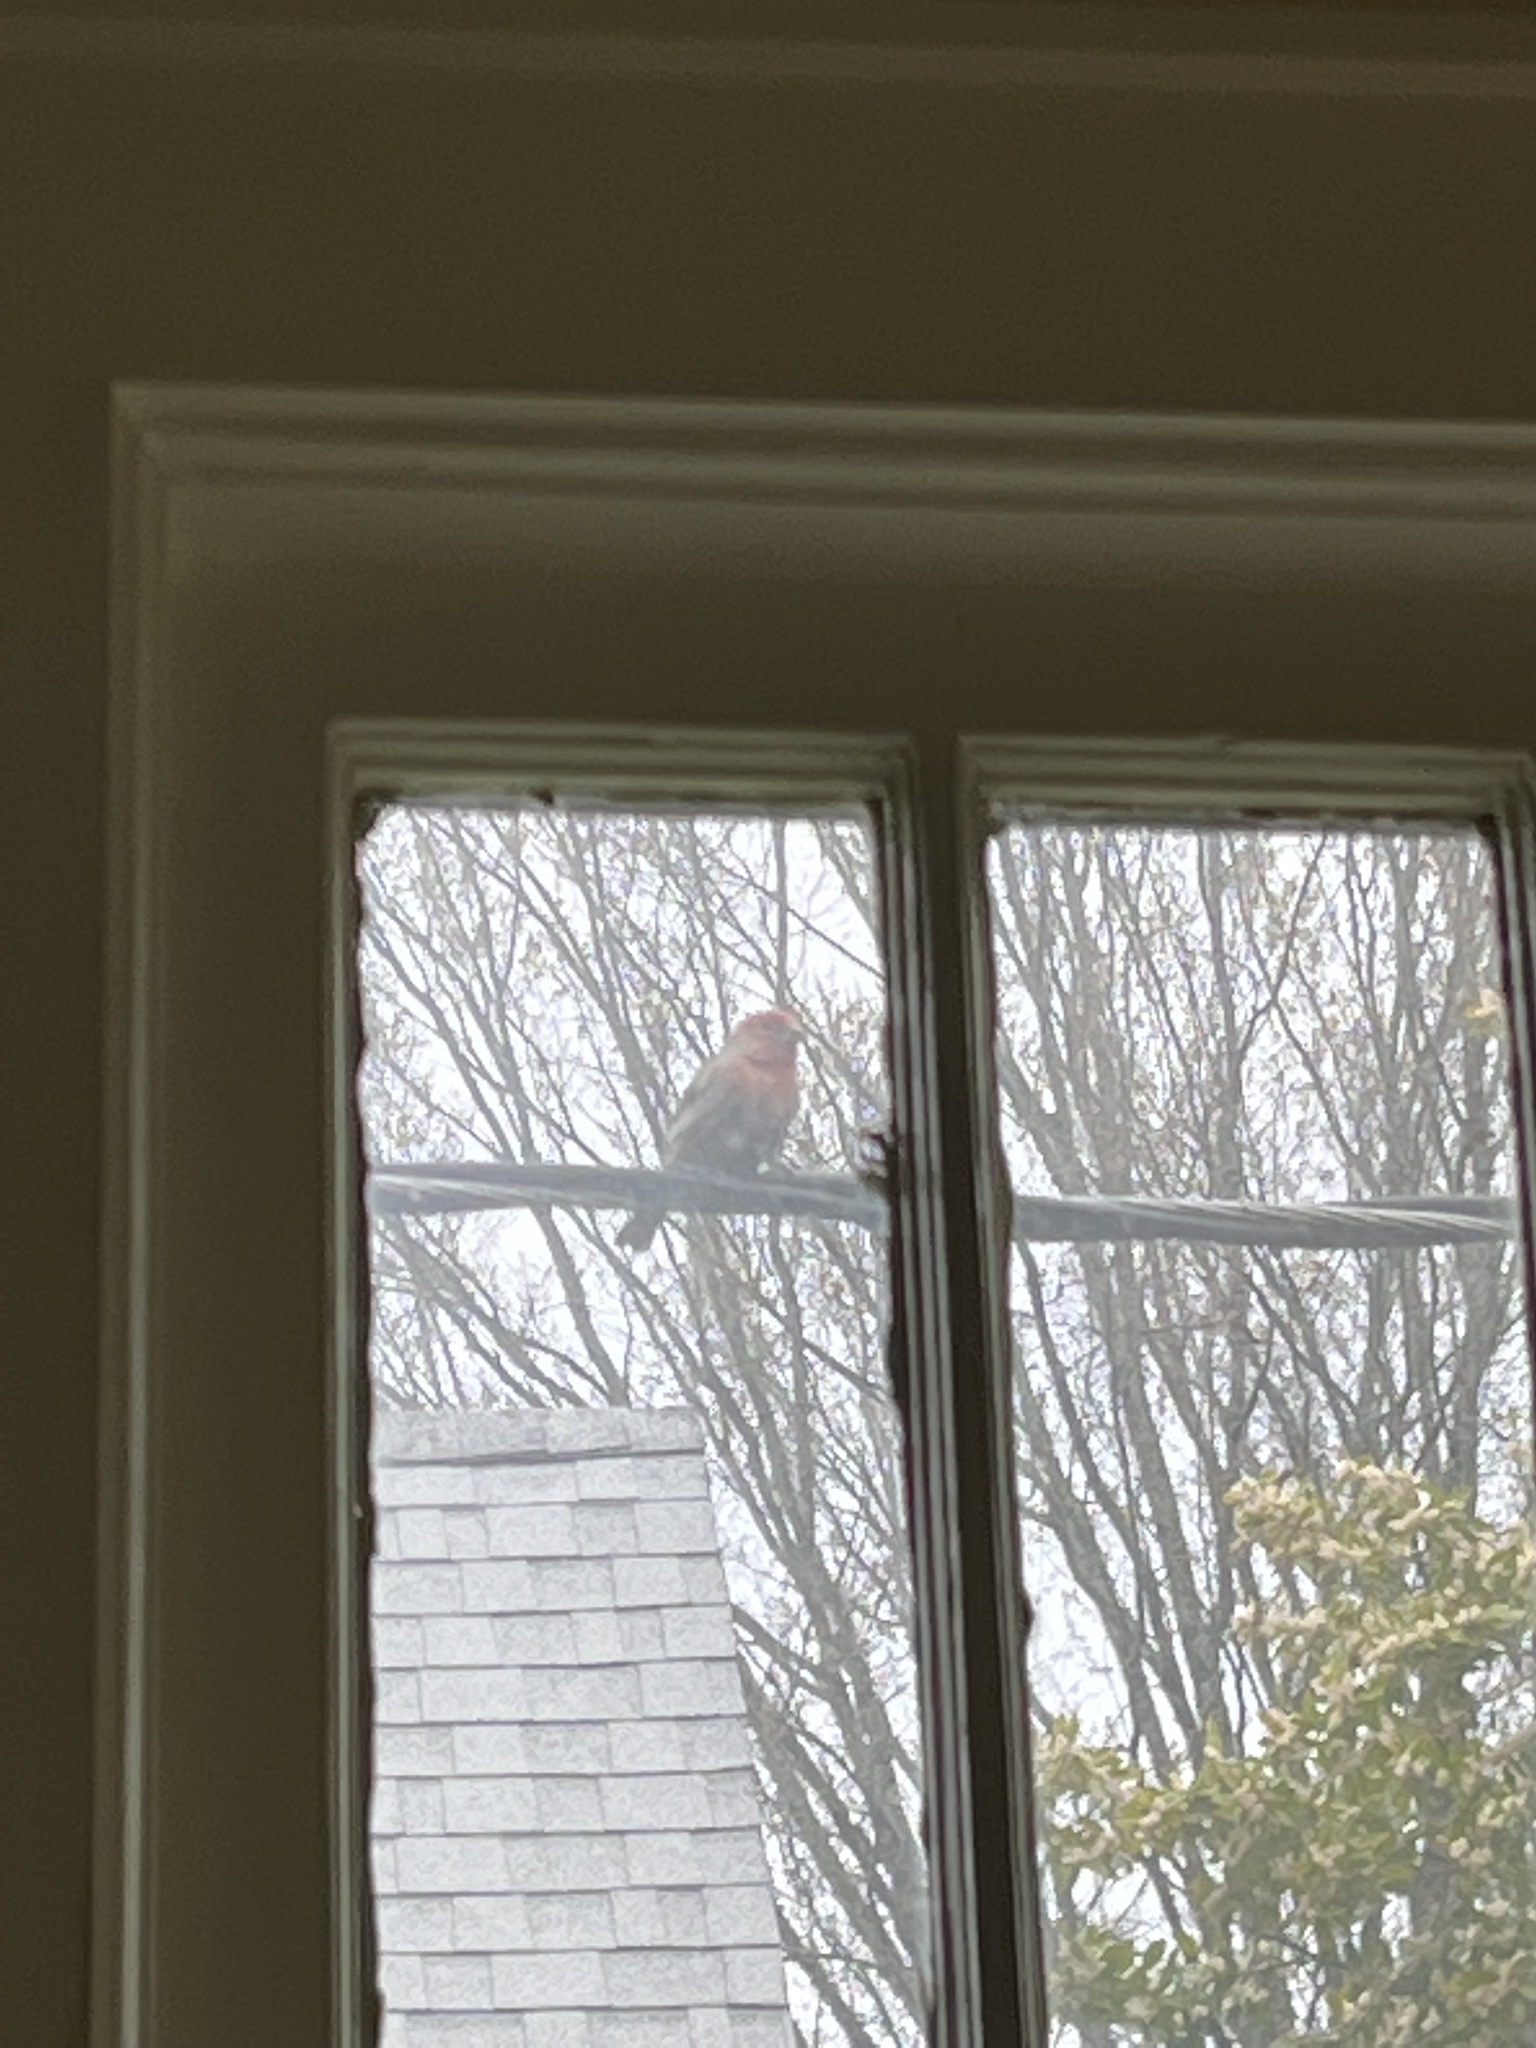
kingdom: Animalia
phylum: Chordata
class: Aves
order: Passeriformes
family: Fringillidae
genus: Haemorhous
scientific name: Haemorhous mexicanus
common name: House finch
